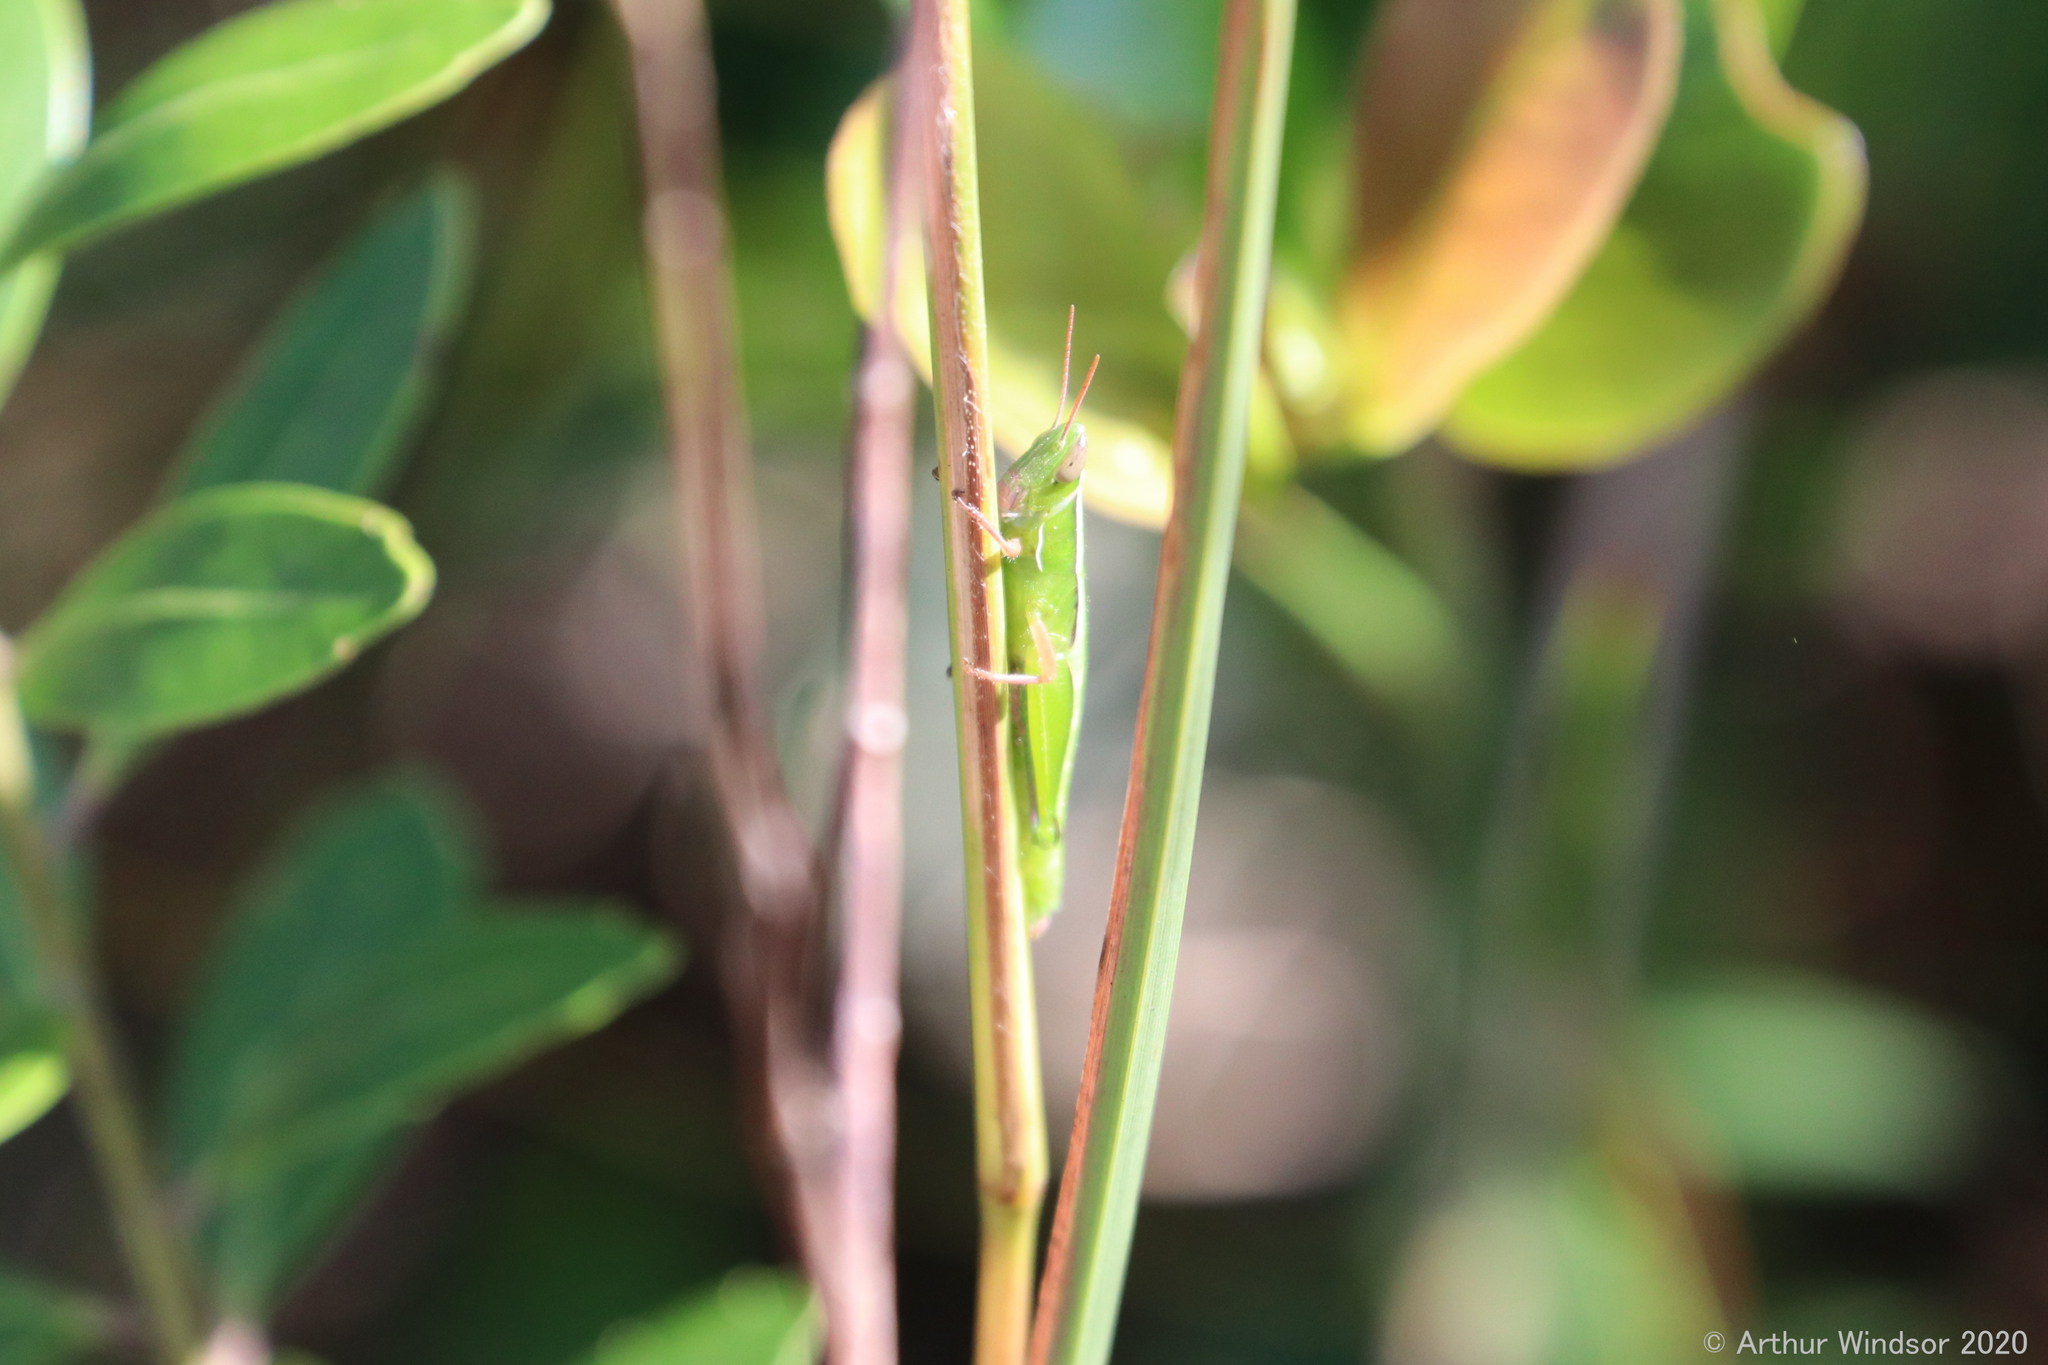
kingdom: Animalia
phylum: Arthropoda
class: Insecta
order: Orthoptera
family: Acrididae
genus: Aptenopedes
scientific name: Aptenopedes sphenarioides
